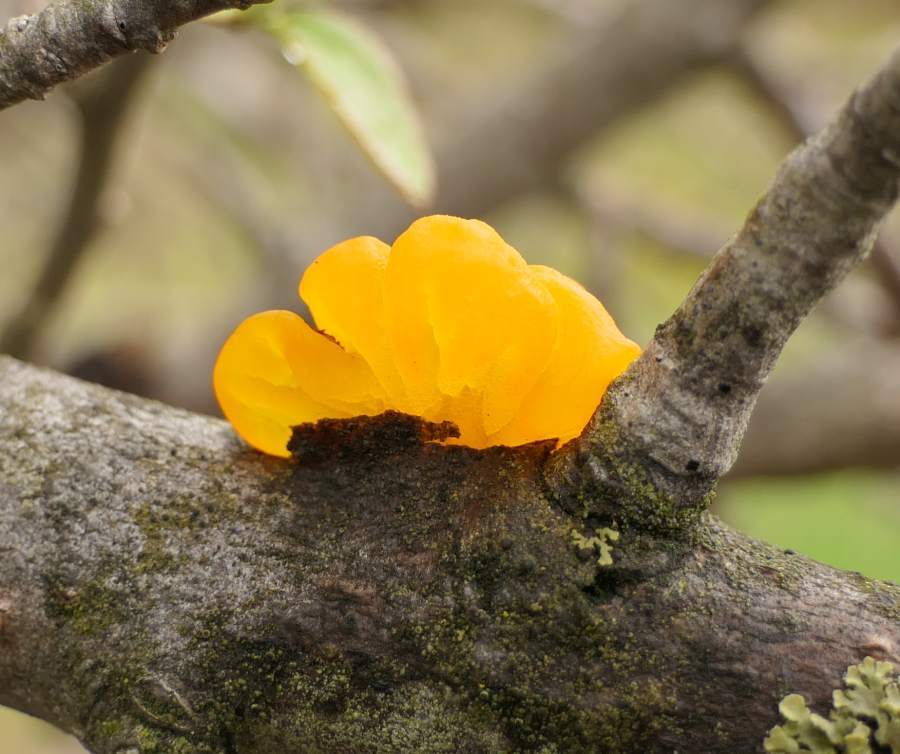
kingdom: Fungi
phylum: Basidiomycota
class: Tremellomycetes
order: Tremellales
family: Tremellaceae
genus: Tremella
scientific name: Tremella mesenterica
